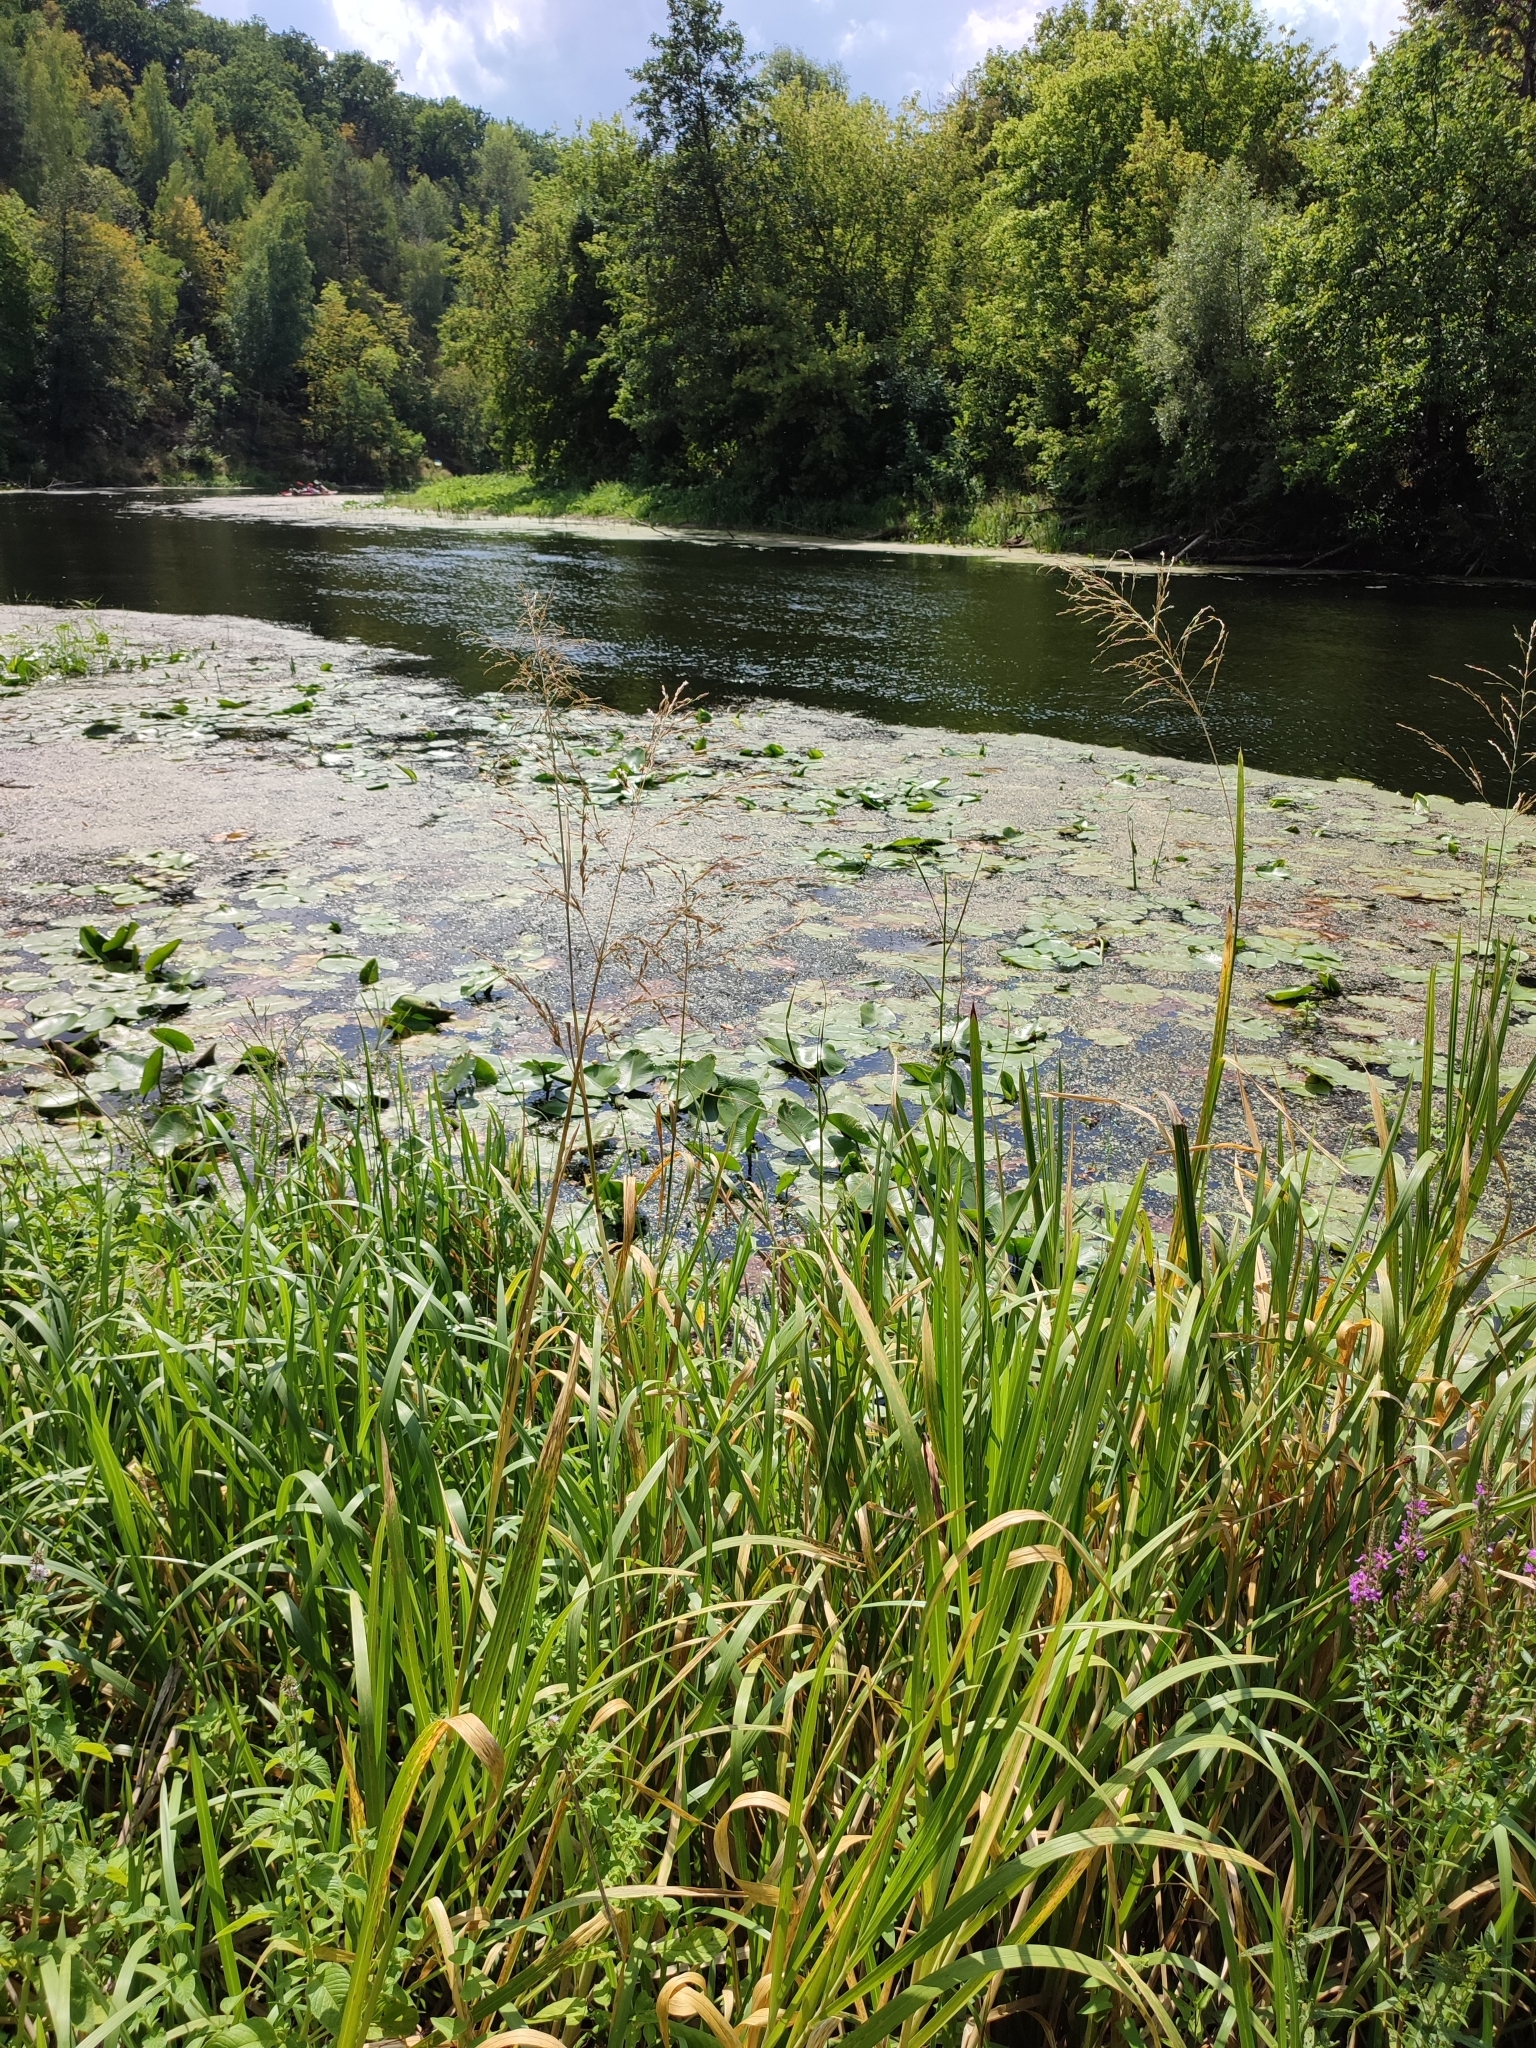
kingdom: Plantae
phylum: Tracheophyta
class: Liliopsida
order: Poales
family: Poaceae
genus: Glyceria
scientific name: Glyceria maxima
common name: Reed mannagrass
